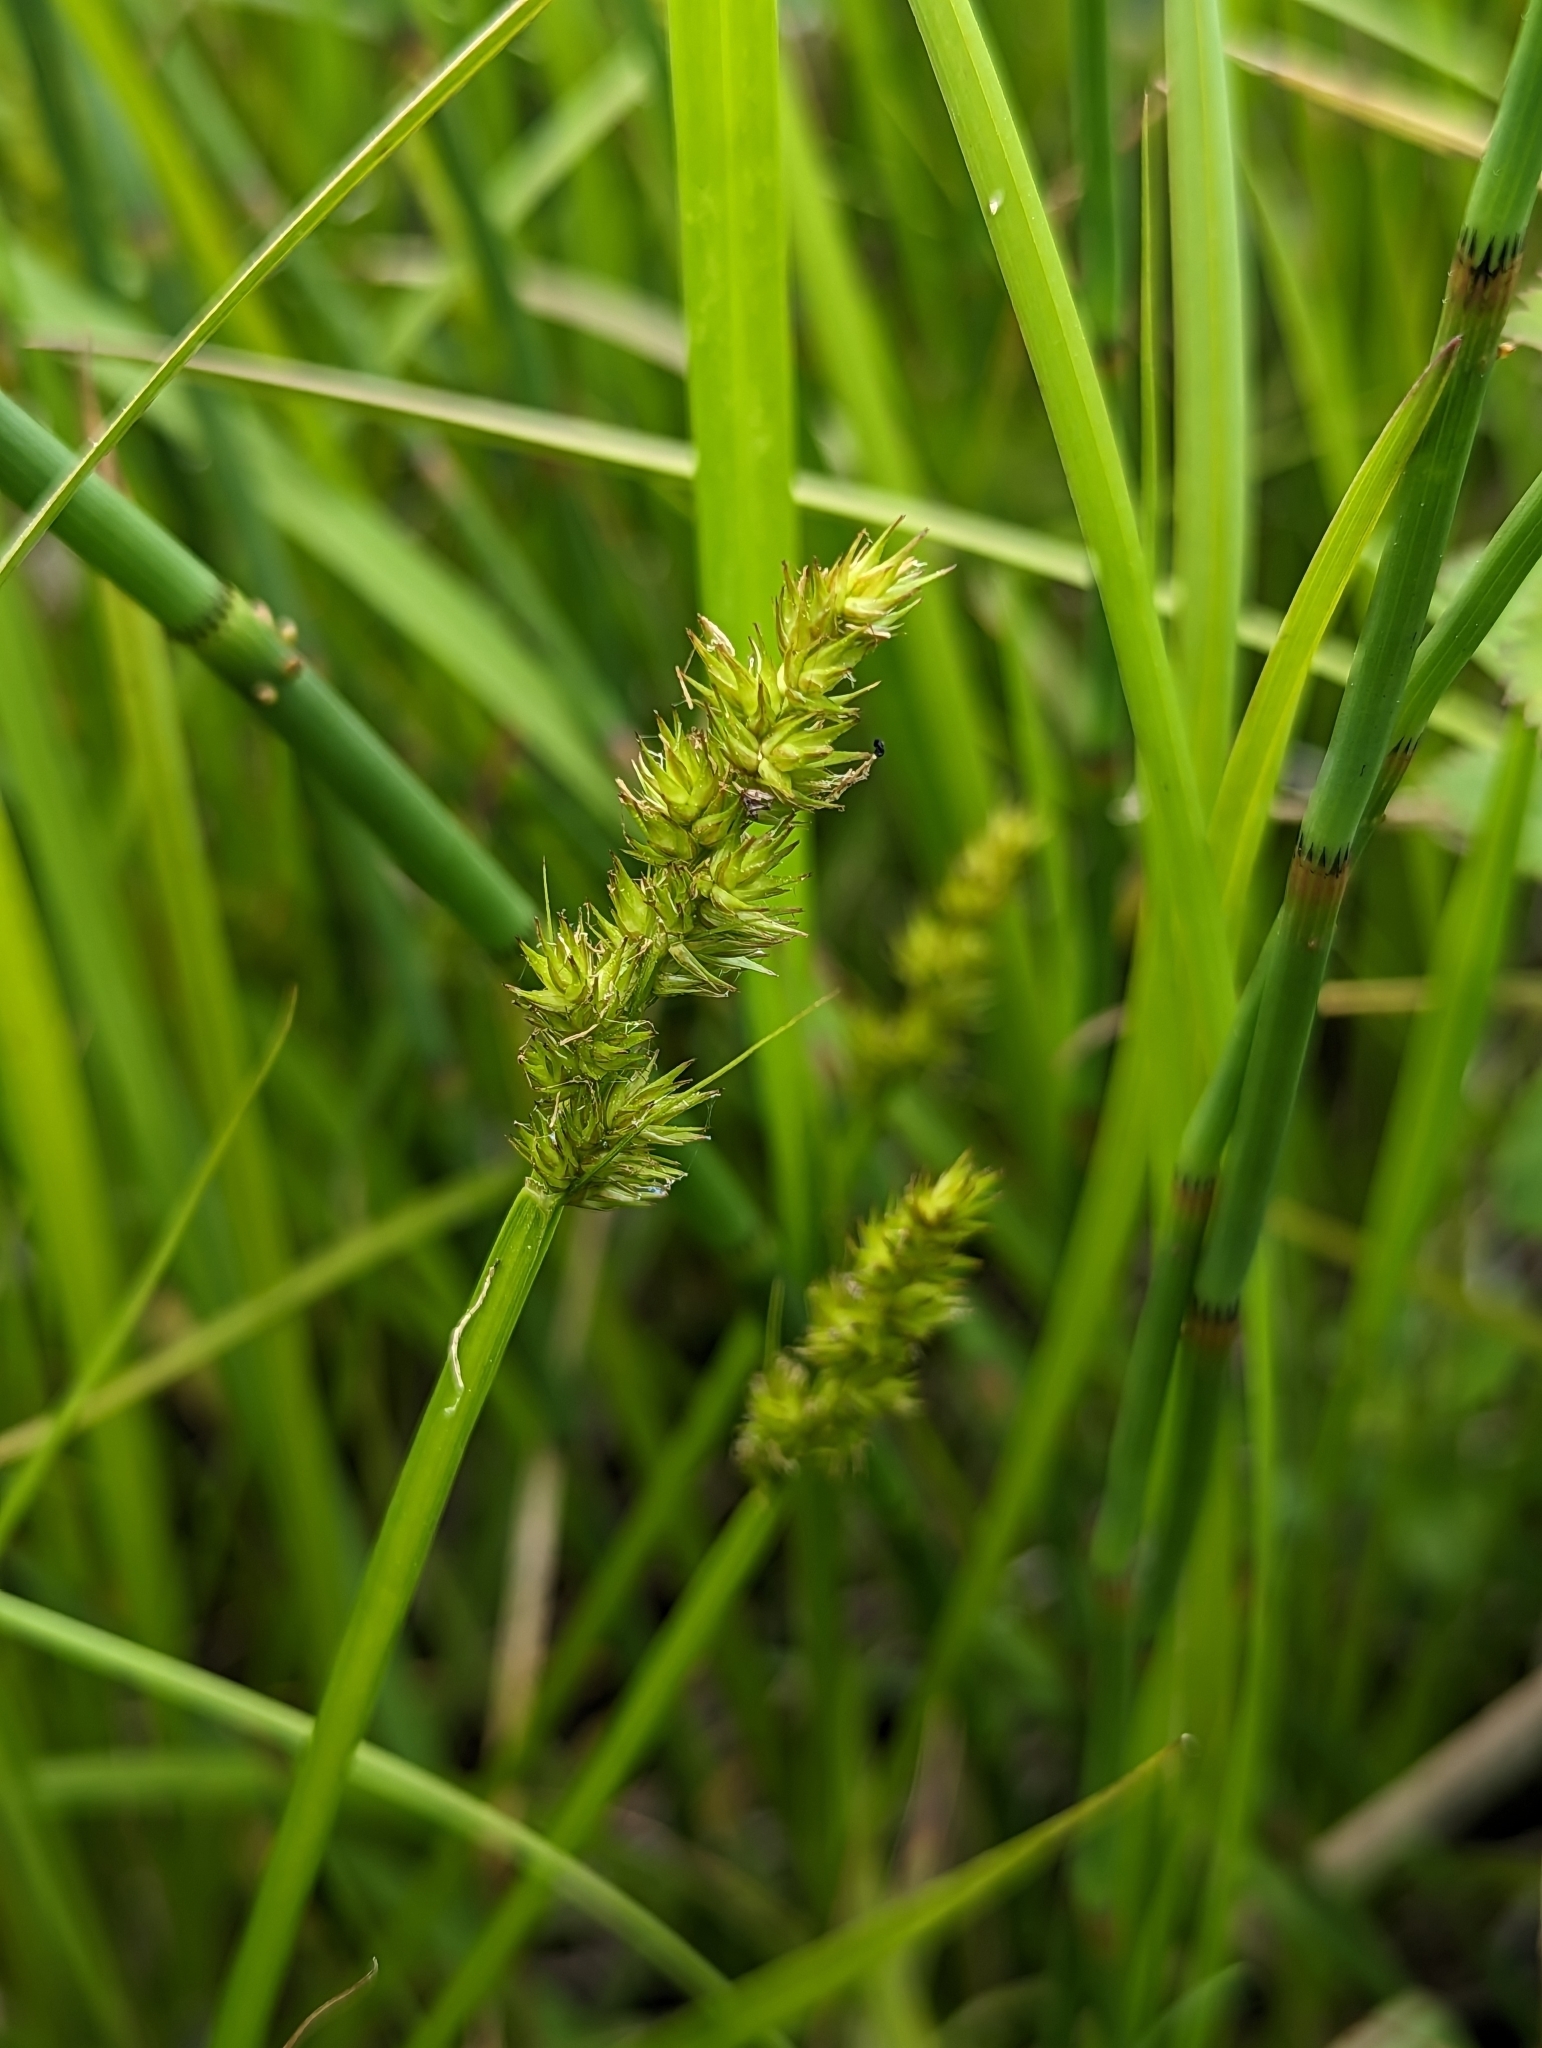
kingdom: Plantae
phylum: Tracheophyta
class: Liliopsida
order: Poales
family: Cyperaceae
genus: Carex
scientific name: Carex stipata
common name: Awl-fruited sedge
